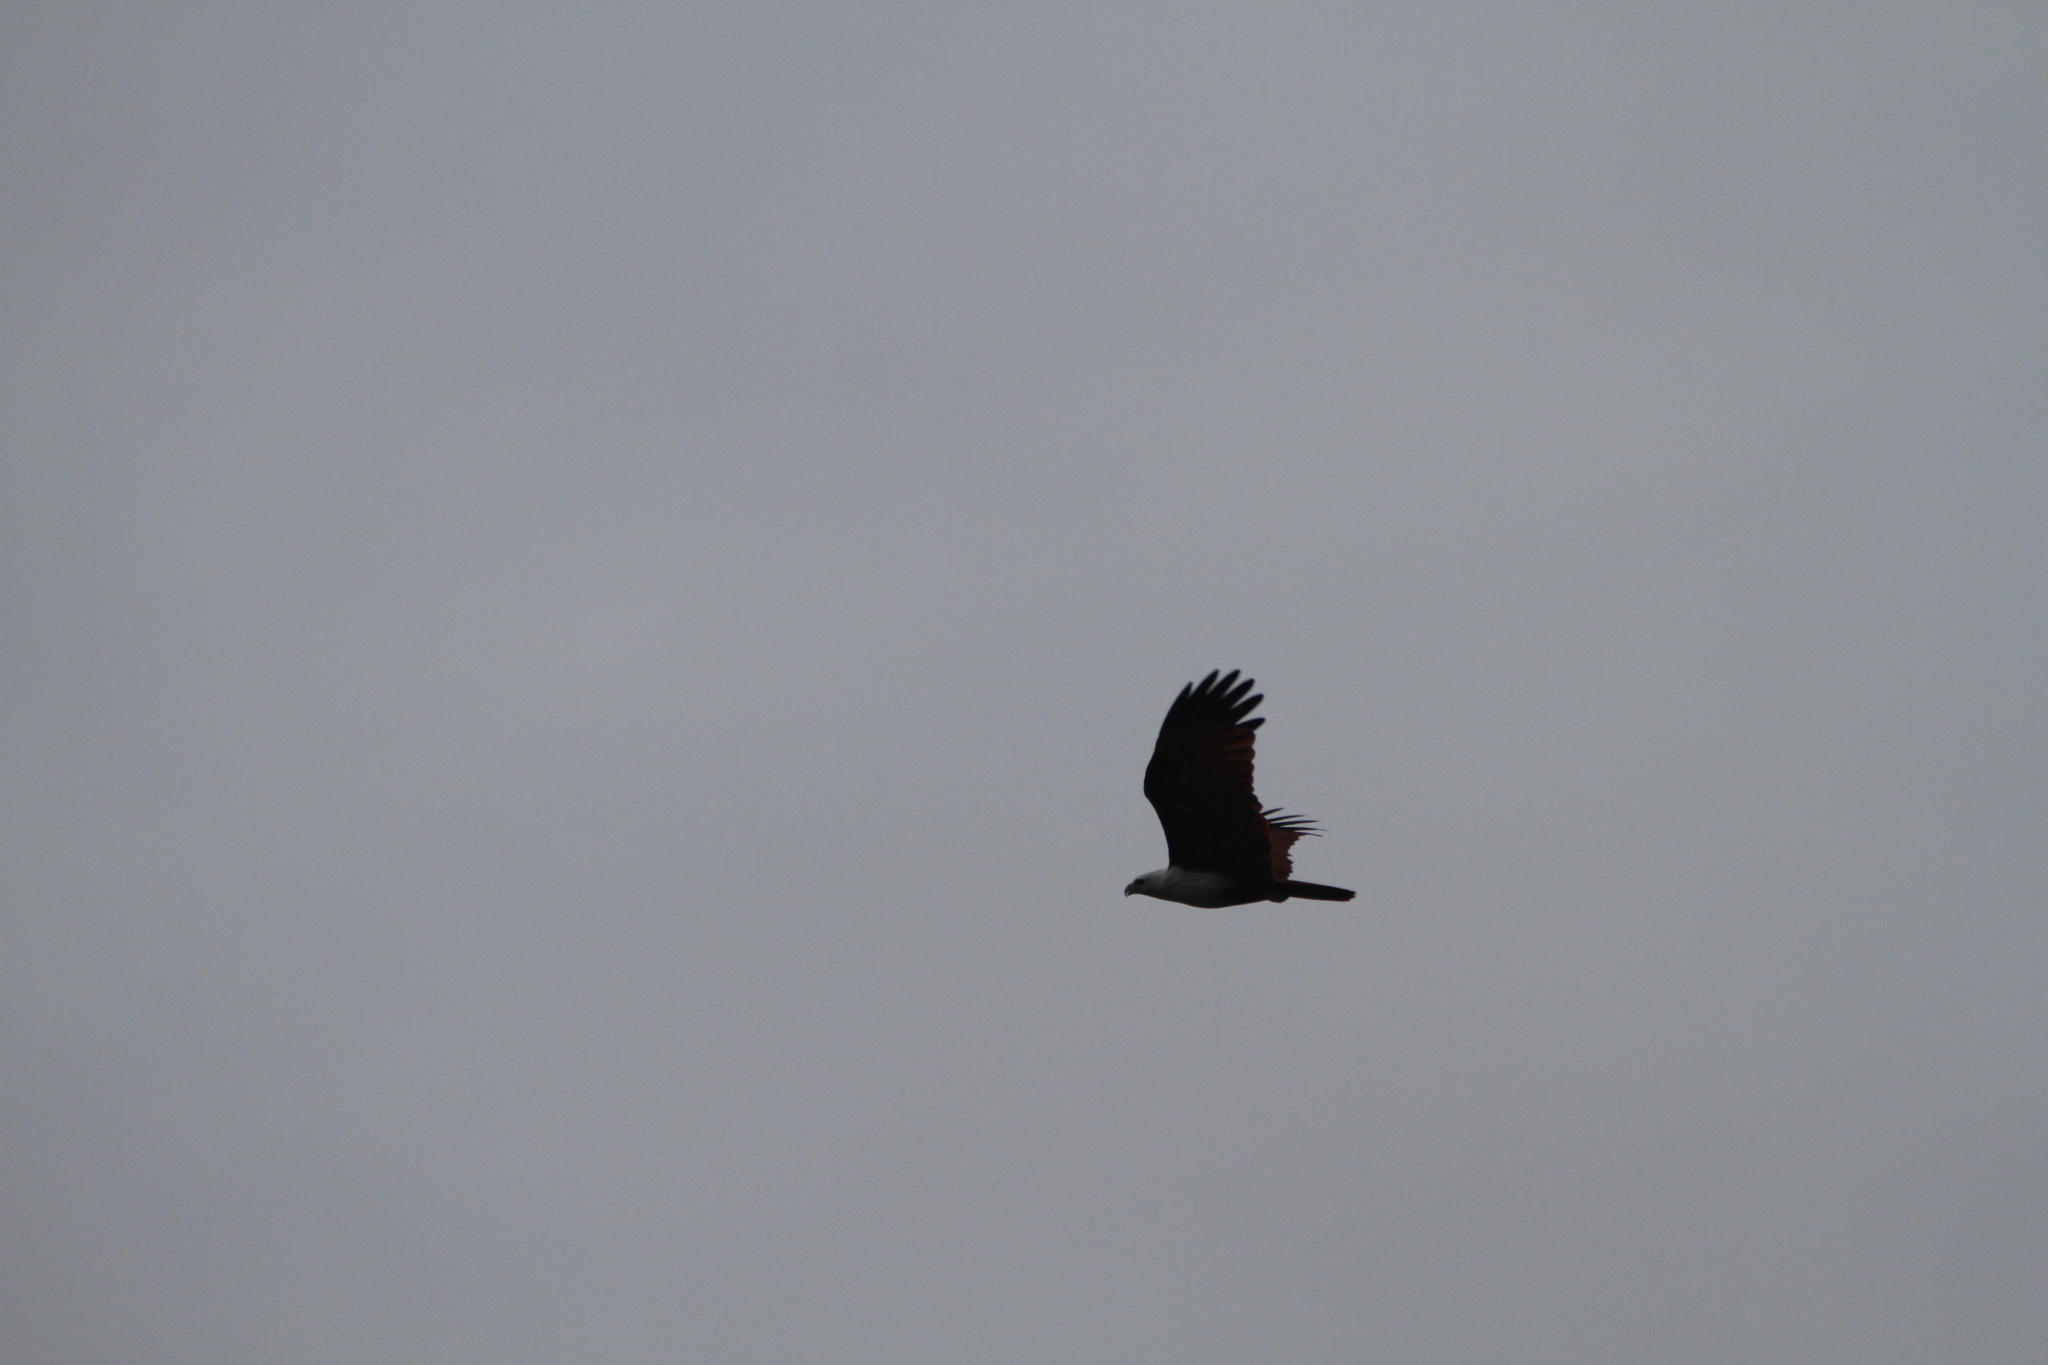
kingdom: Animalia
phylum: Chordata
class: Aves
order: Accipitriformes
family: Accipitridae
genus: Haliastur
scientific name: Haliastur indus
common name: Brahminy kite
